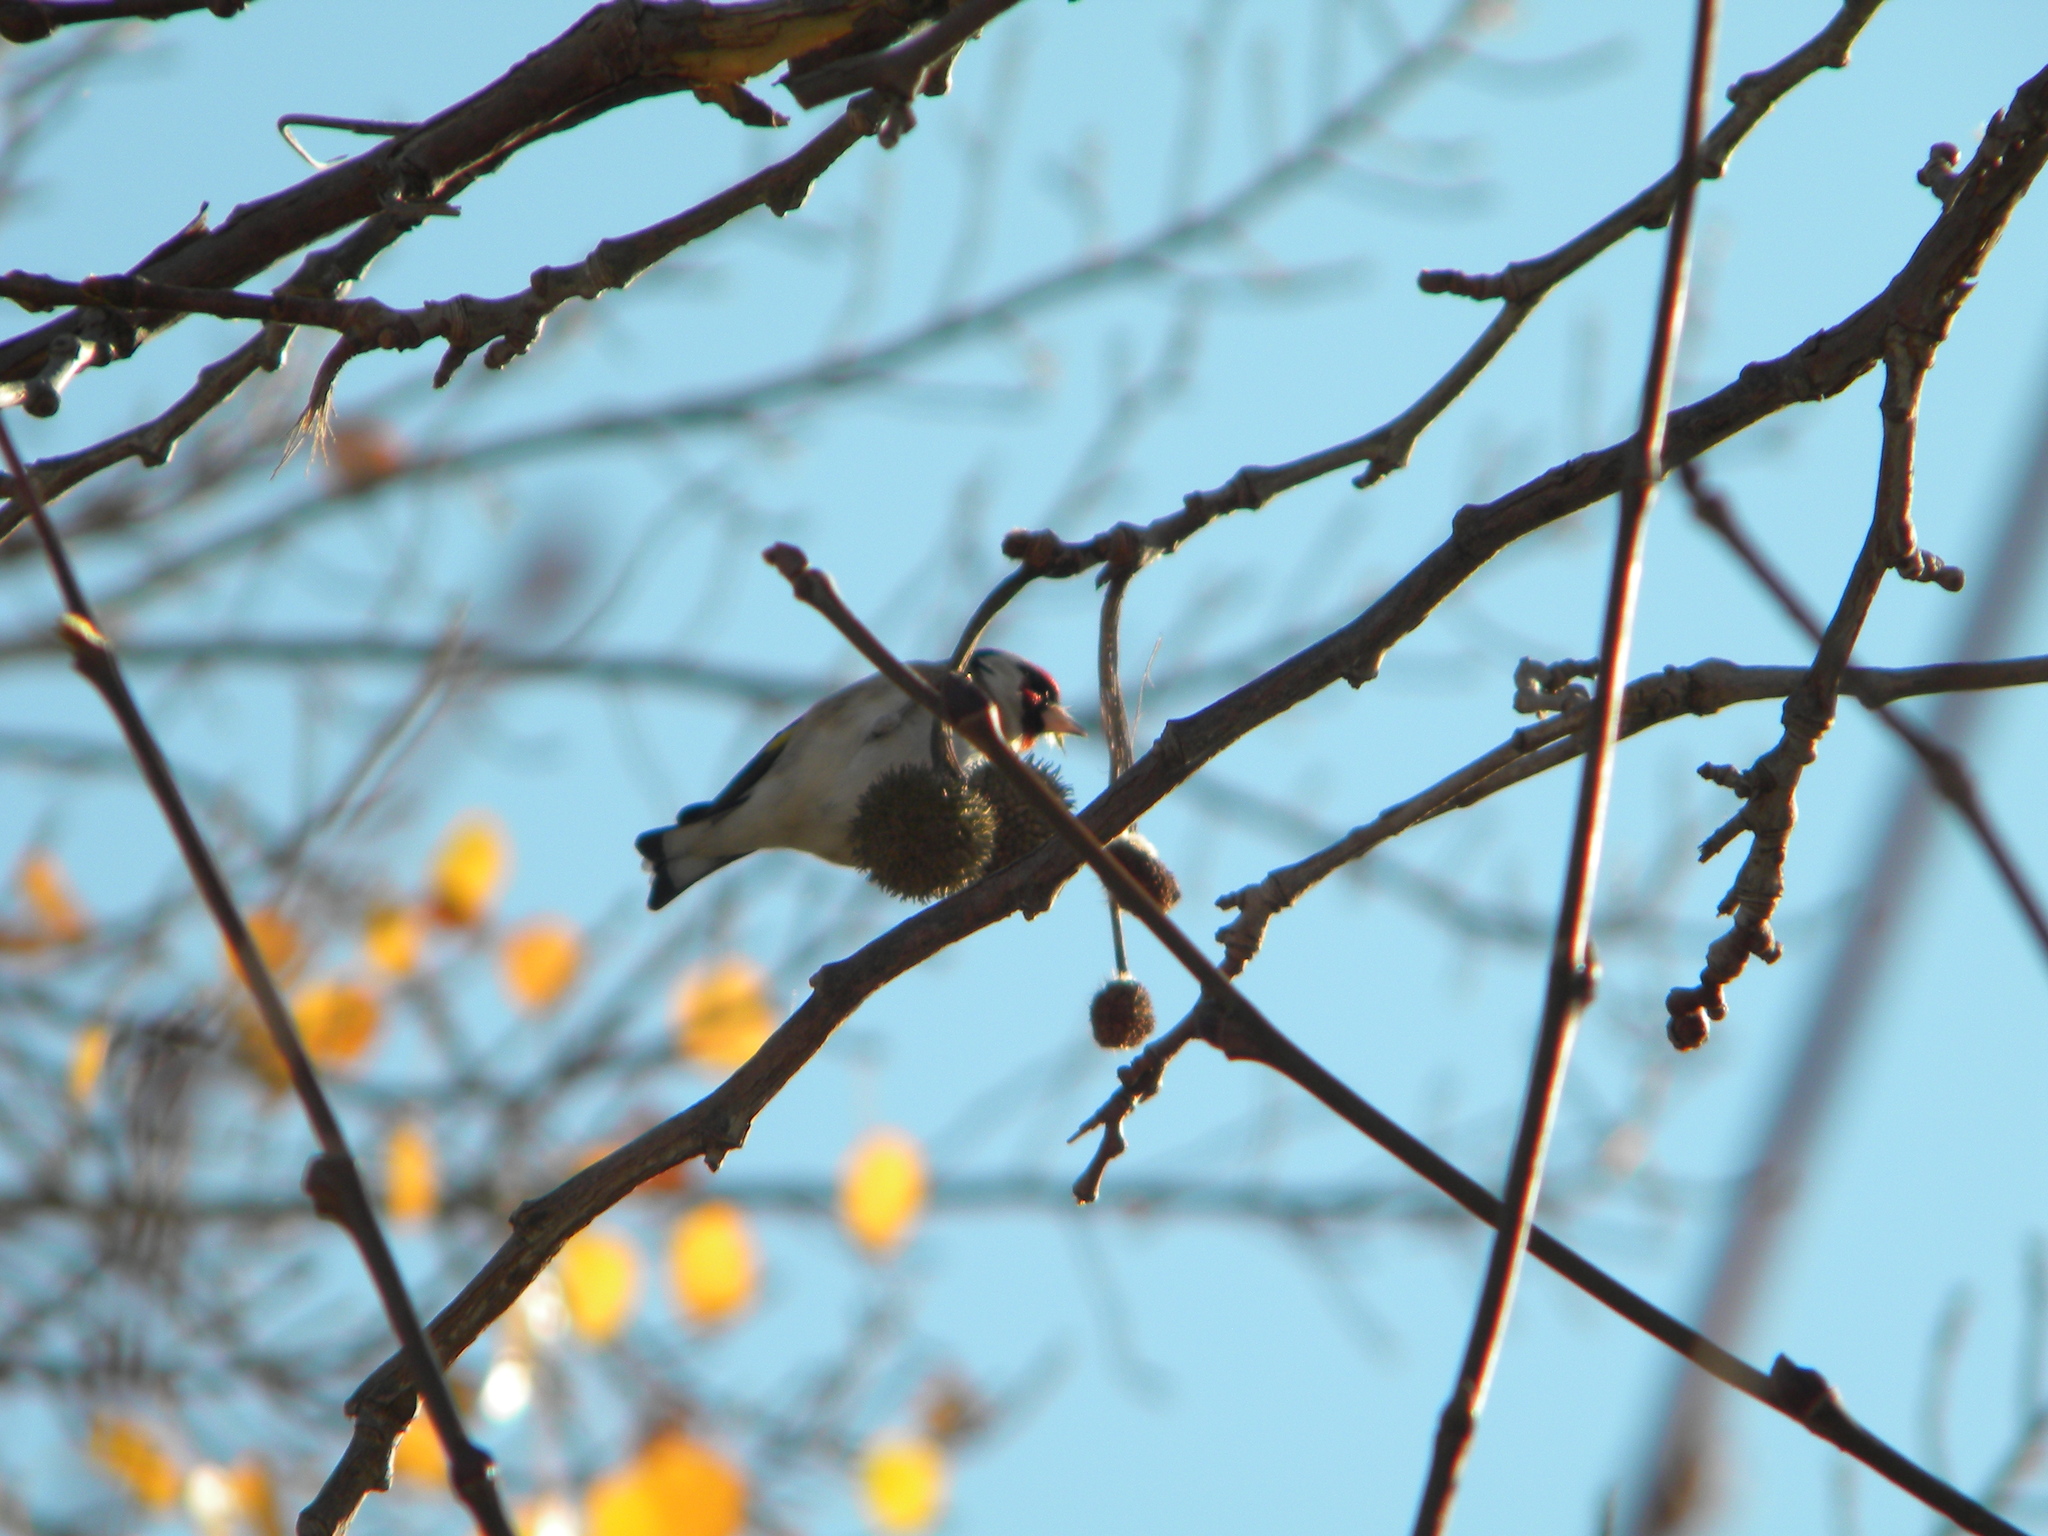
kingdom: Animalia
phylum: Chordata
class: Aves
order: Passeriformes
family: Fringillidae
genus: Carduelis
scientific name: Carduelis carduelis
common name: European goldfinch
